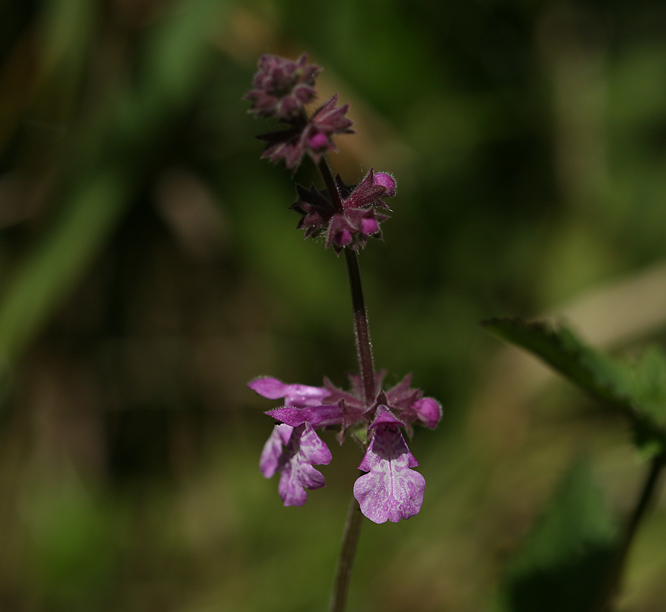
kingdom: Plantae
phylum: Tracheophyta
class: Magnoliopsida
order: Lamiales
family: Lamiaceae
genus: Stachys
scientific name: Stachys bullata
